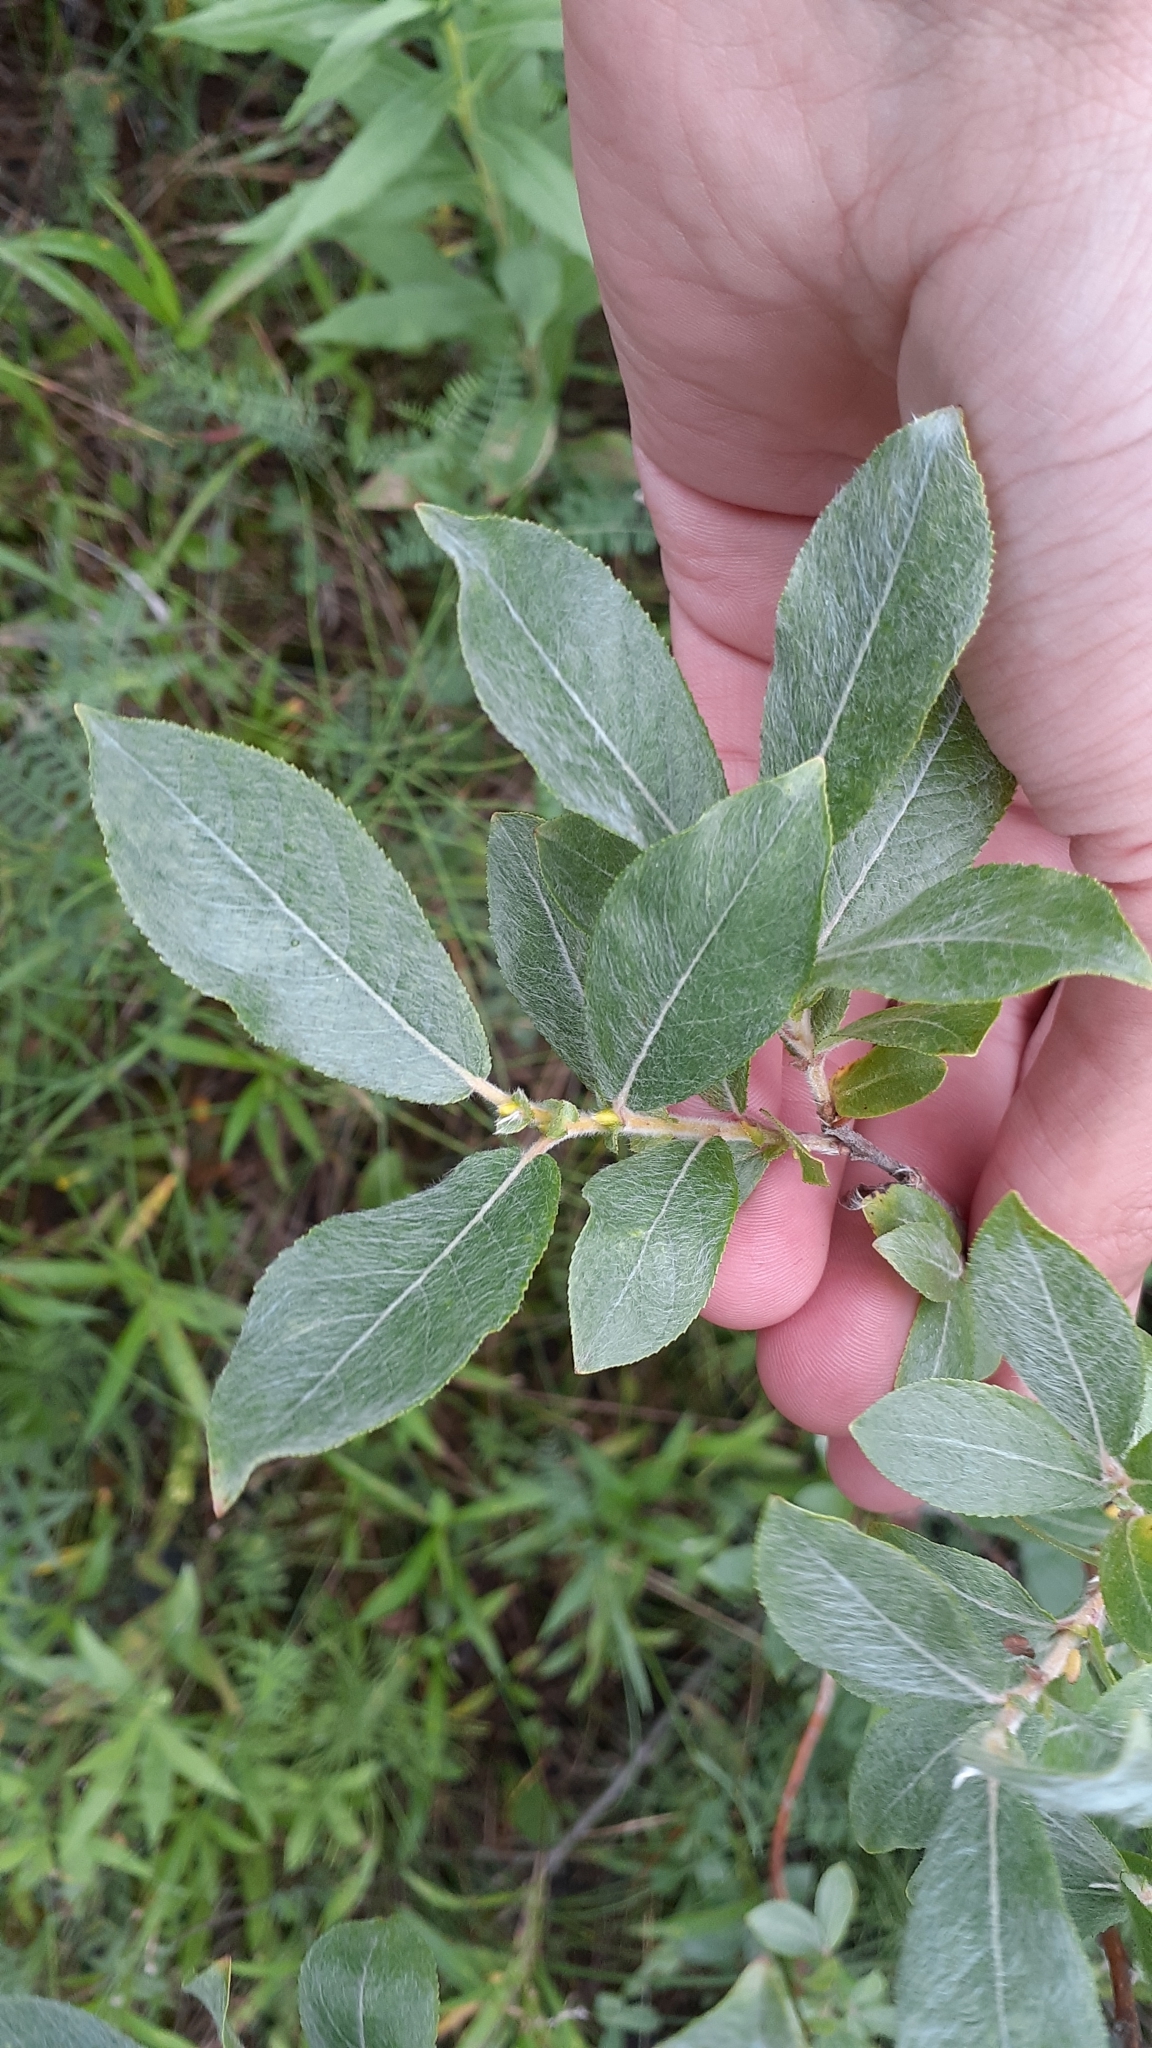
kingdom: Plantae
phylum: Tracheophyta
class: Magnoliopsida
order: Malpighiales
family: Salicaceae
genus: Salix
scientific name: Salix cordata
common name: Heart-leaf willow
